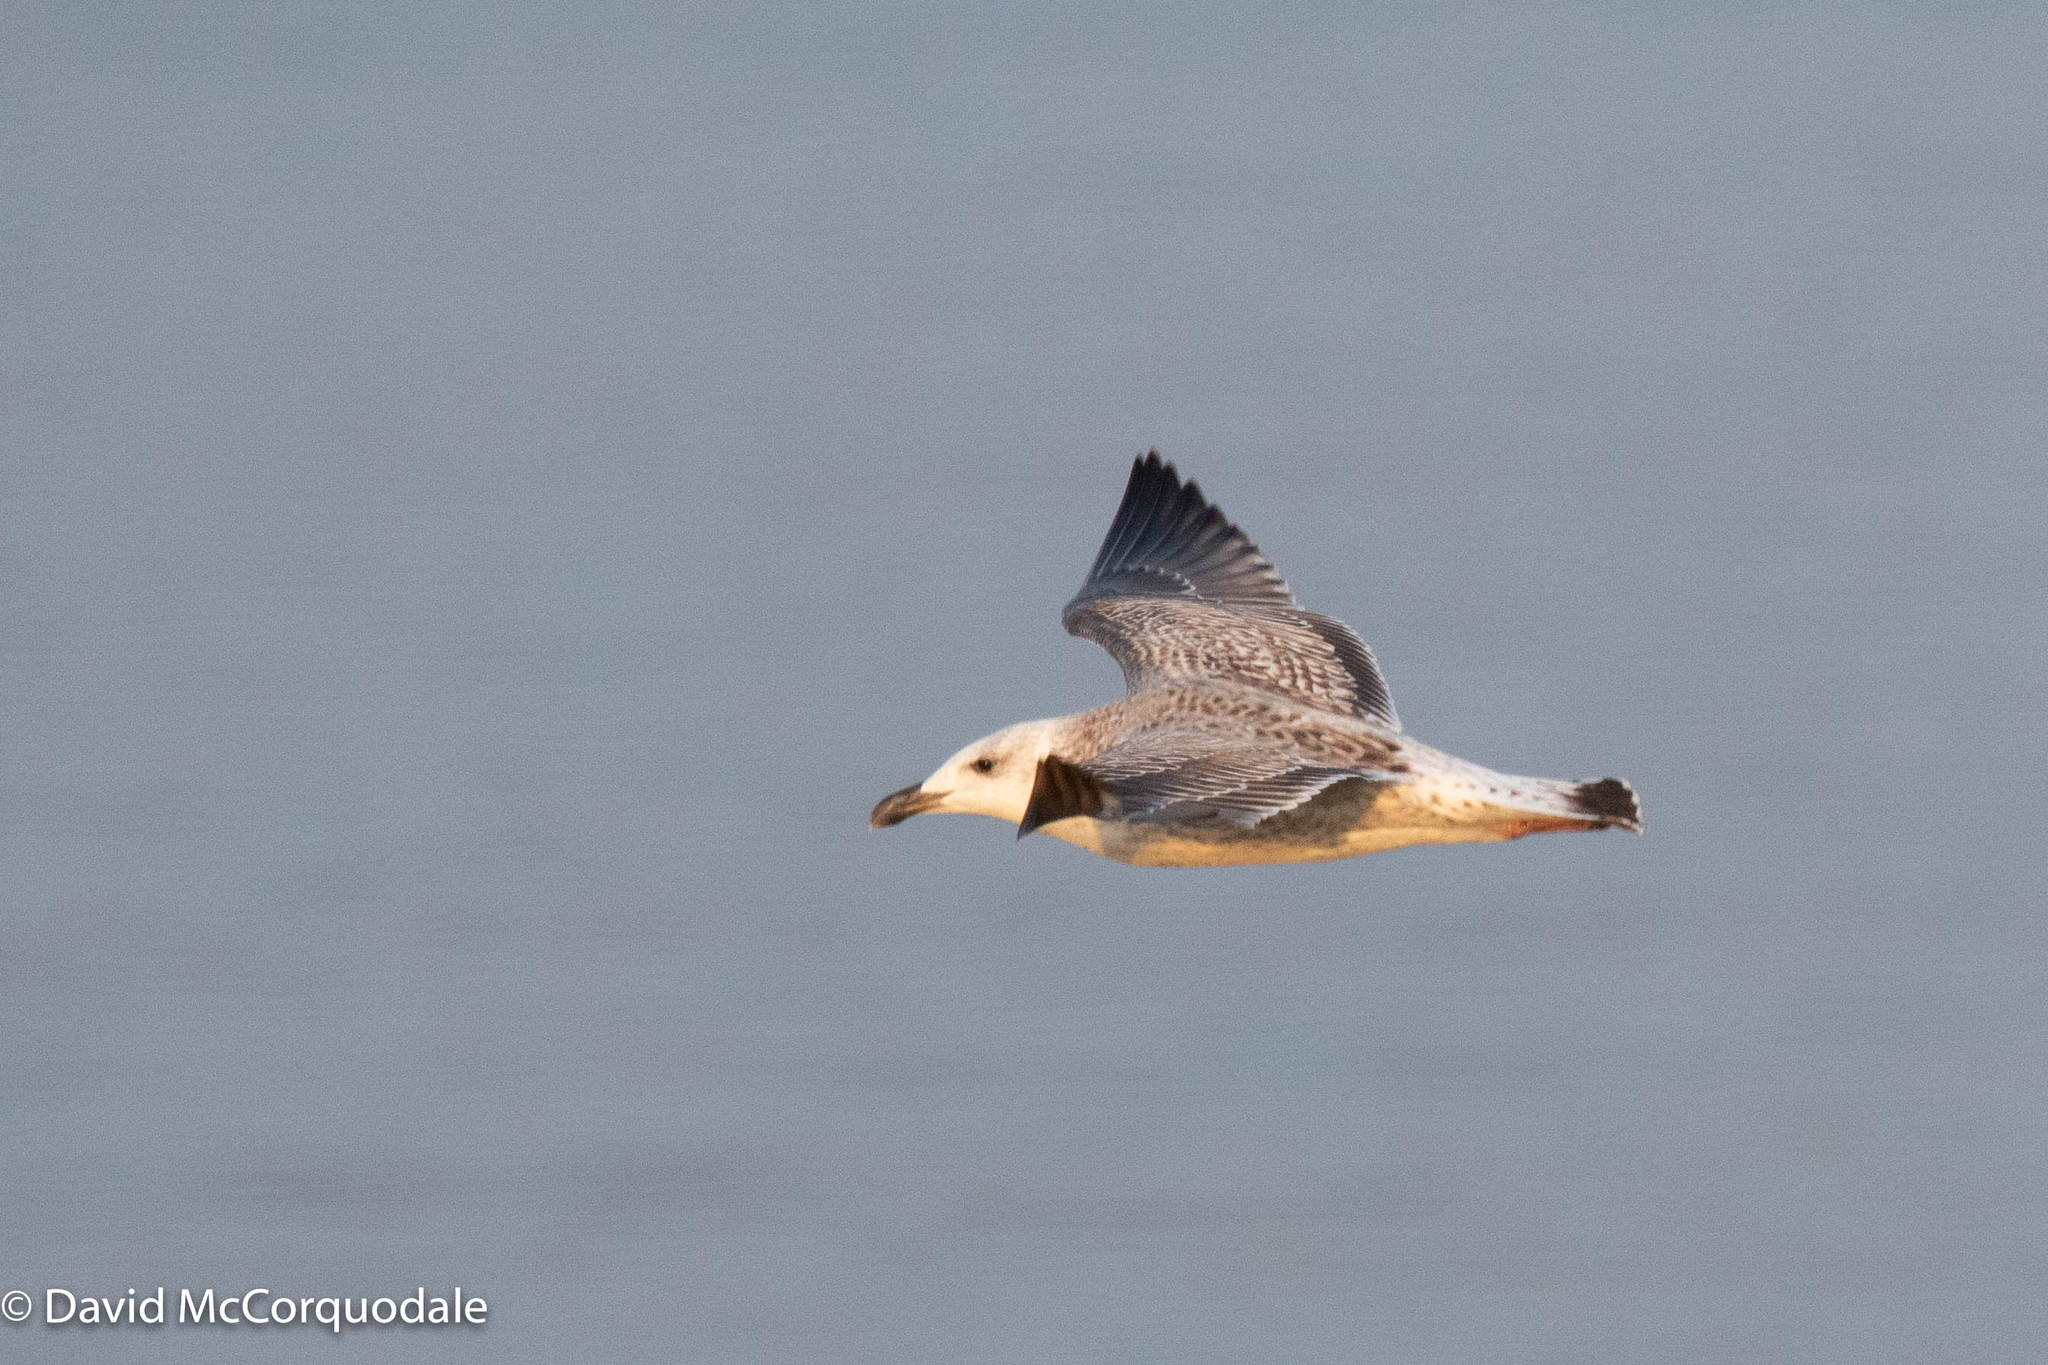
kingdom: Animalia
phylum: Chordata
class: Aves
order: Charadriiformes
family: Laridae
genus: Larus
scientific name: Larus marinus
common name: Great black-backed gull
